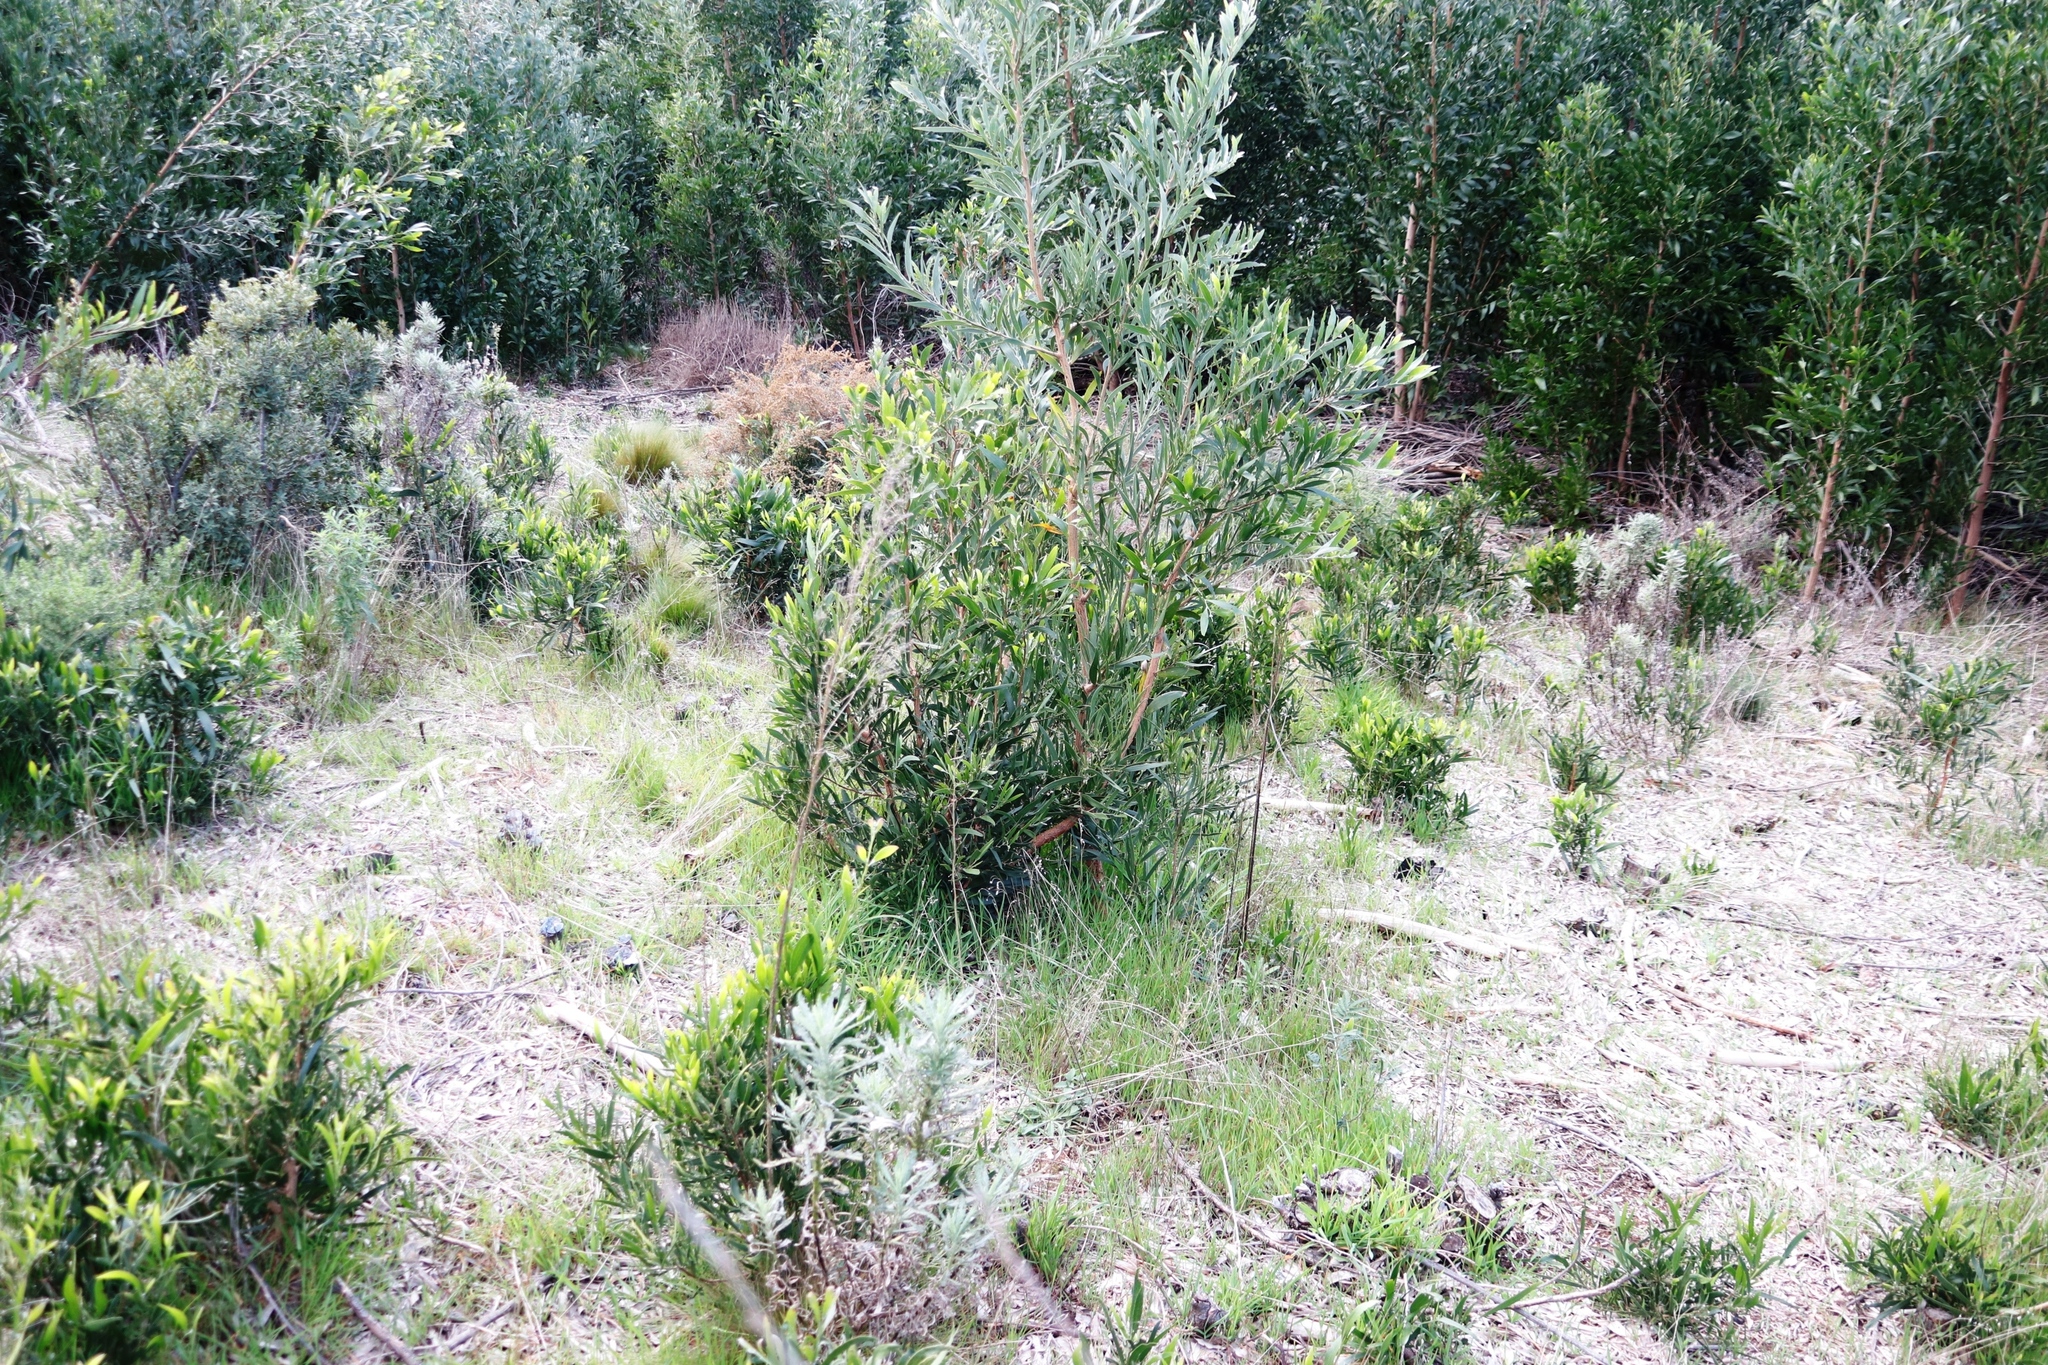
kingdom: Plantae
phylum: Tracheophyta
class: Magnoliopsida
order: Fabales
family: Fabaceae
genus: Acacia
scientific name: Acacia melanoxylon
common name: Blackwood
